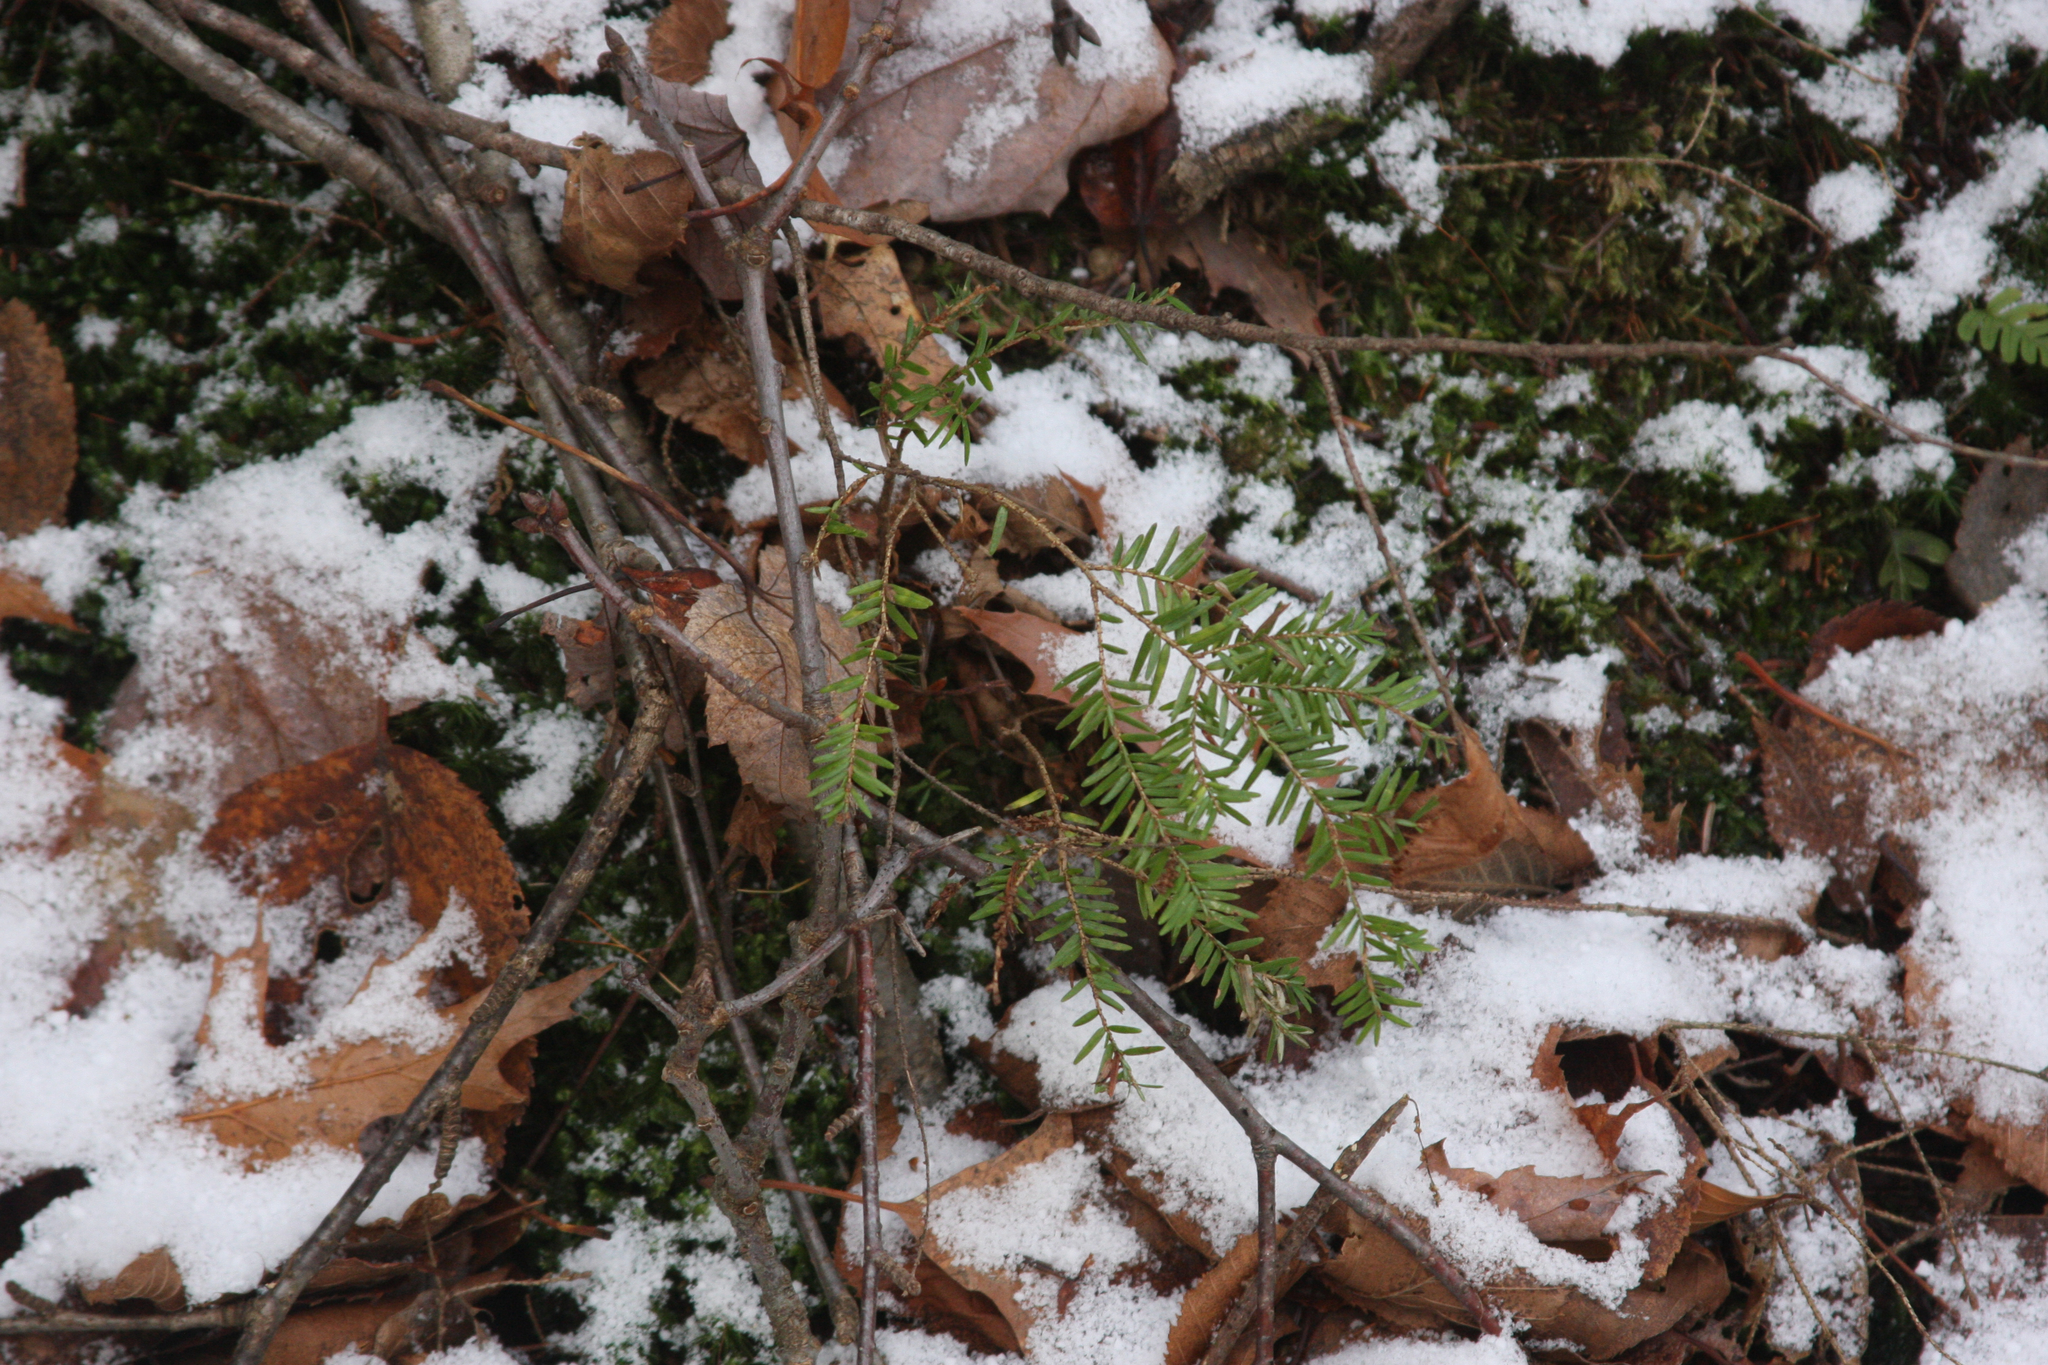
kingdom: Plantae
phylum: Tracheophyta
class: Pinopsida
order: Pinales
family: Pinaceae
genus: Tsuga
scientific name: Tsuga canadensis
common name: Eastern hemlock
